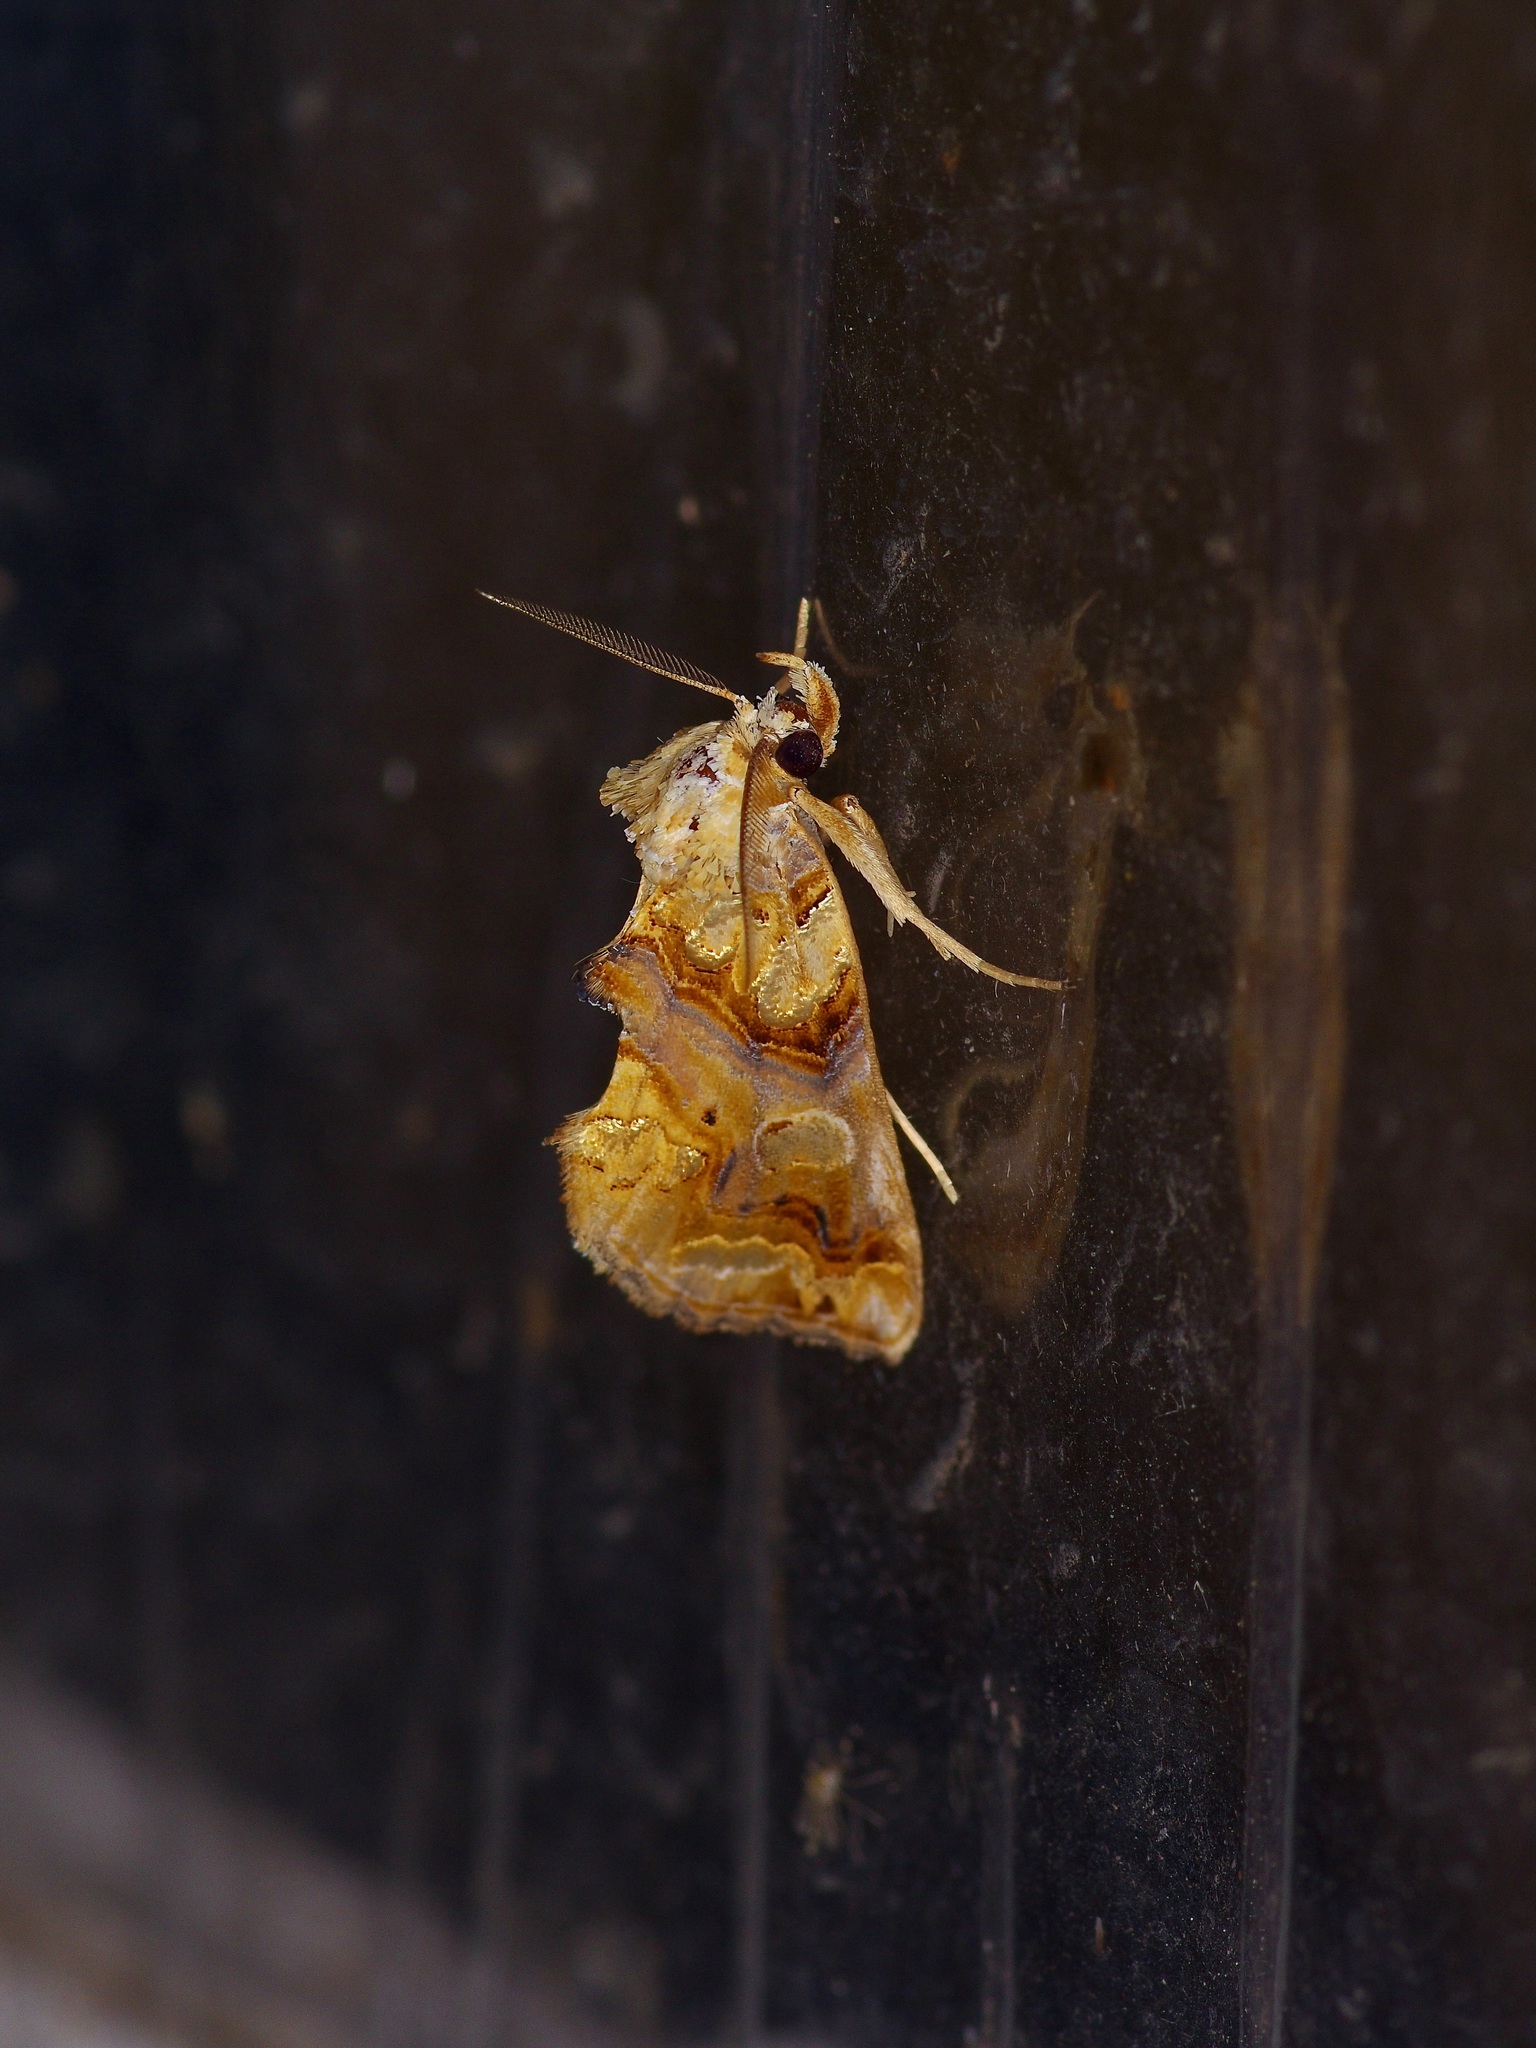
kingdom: Animalia
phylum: Arthropoda
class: Insecta
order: Lepidoptera
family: Erebidae
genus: Plusiodonta
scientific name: Plusiodonta compressipalpis
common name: Moonseed moth
